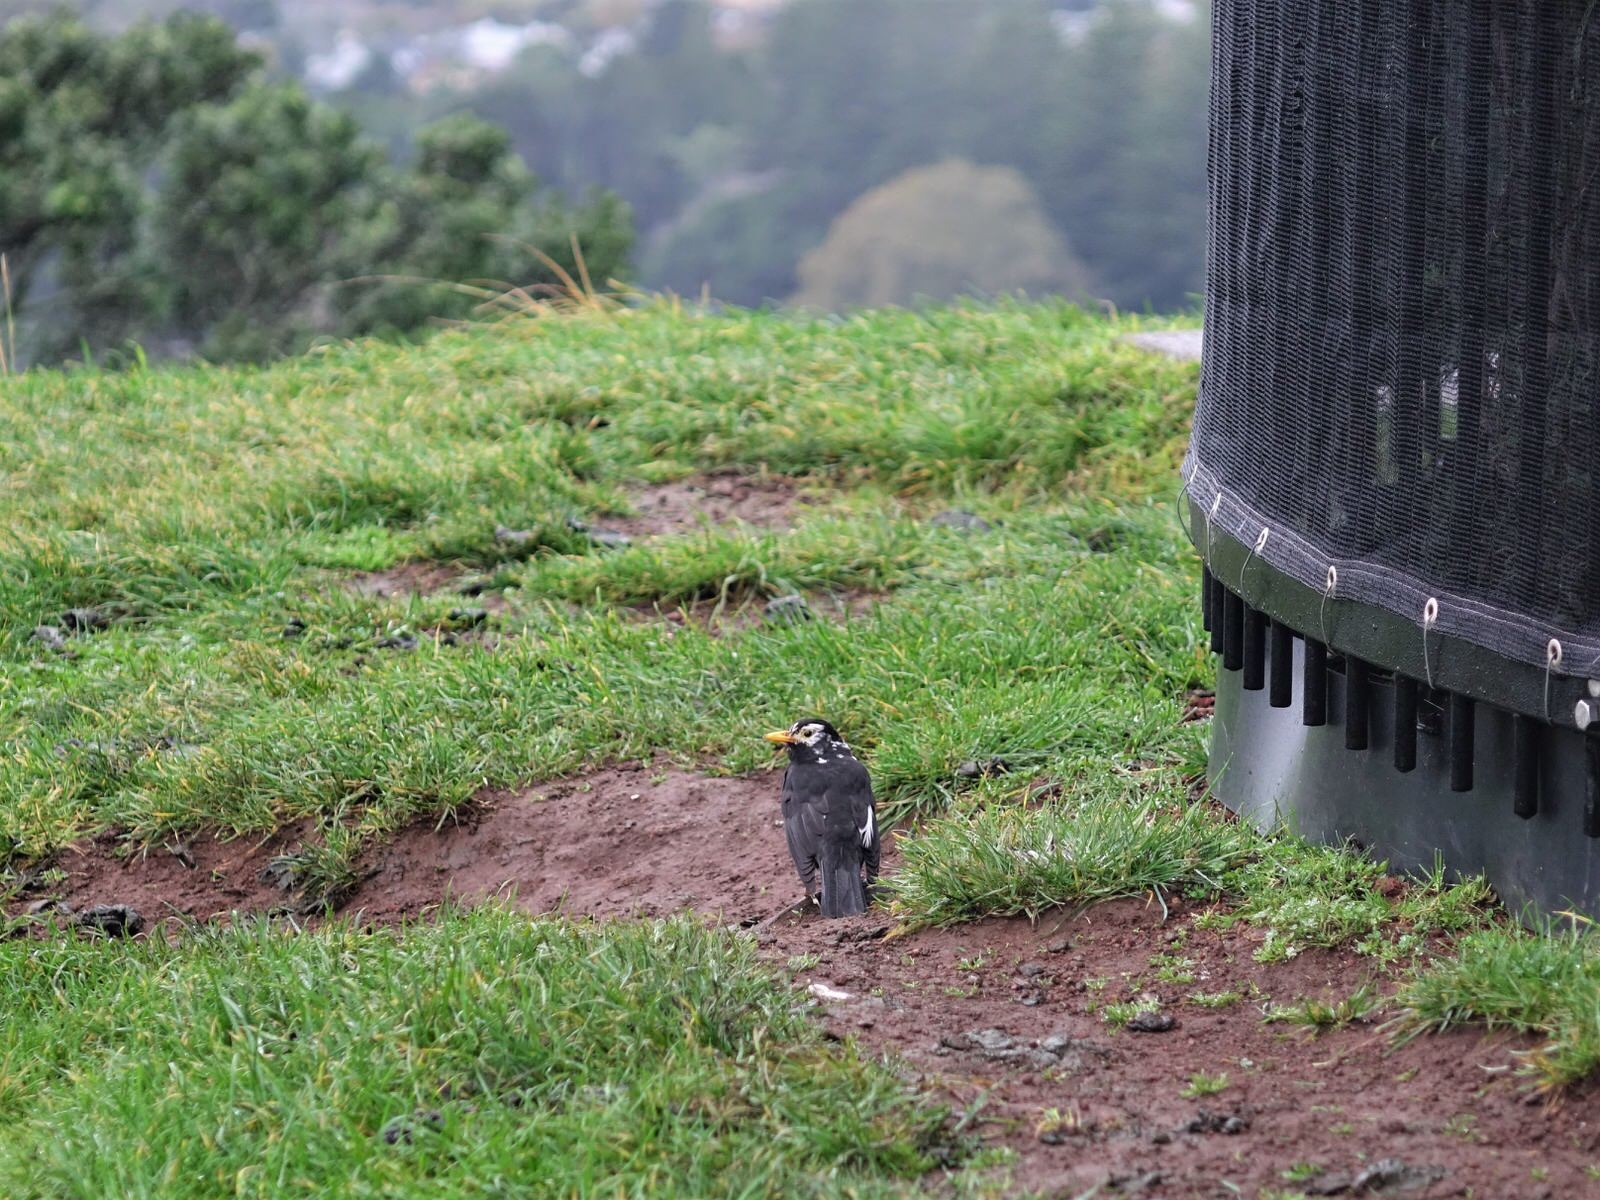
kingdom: Animalia
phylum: Chordata
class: Aves
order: Passeriformes
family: Turdidae
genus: Turdus
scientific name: Turdus merula
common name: Common blackbird
